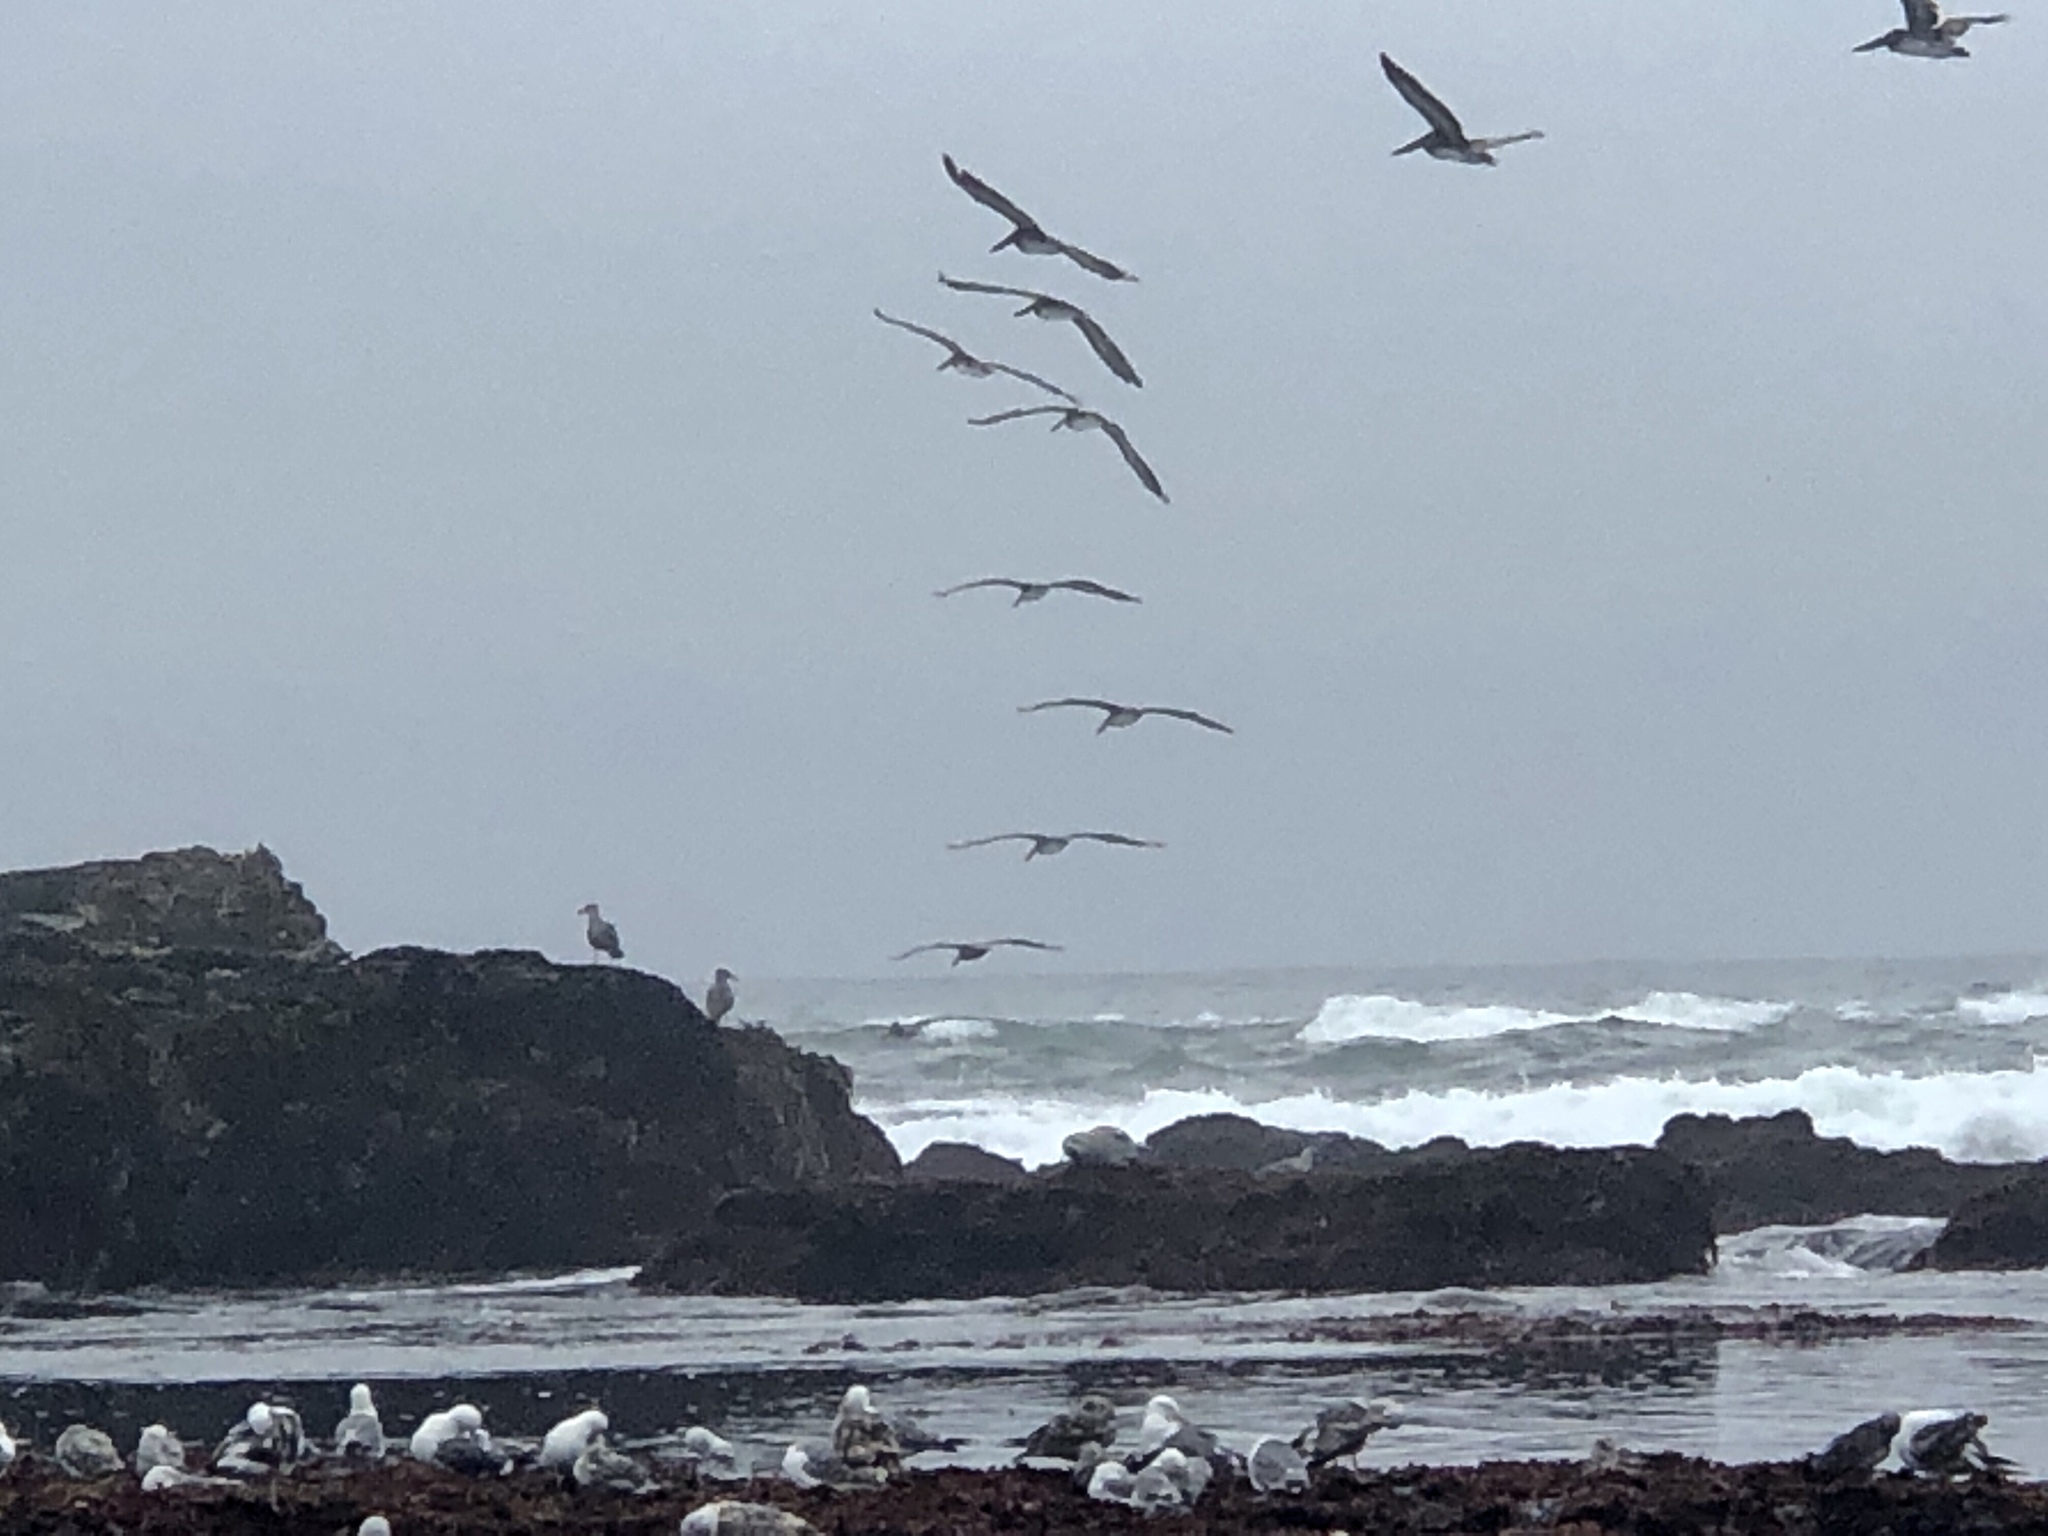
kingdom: Animalia
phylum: Chordata
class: Aves
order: Pelecaniformes
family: Pelecanidae
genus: Pelecanus
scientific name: Pelecanus occidentalis
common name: Brown pelican
